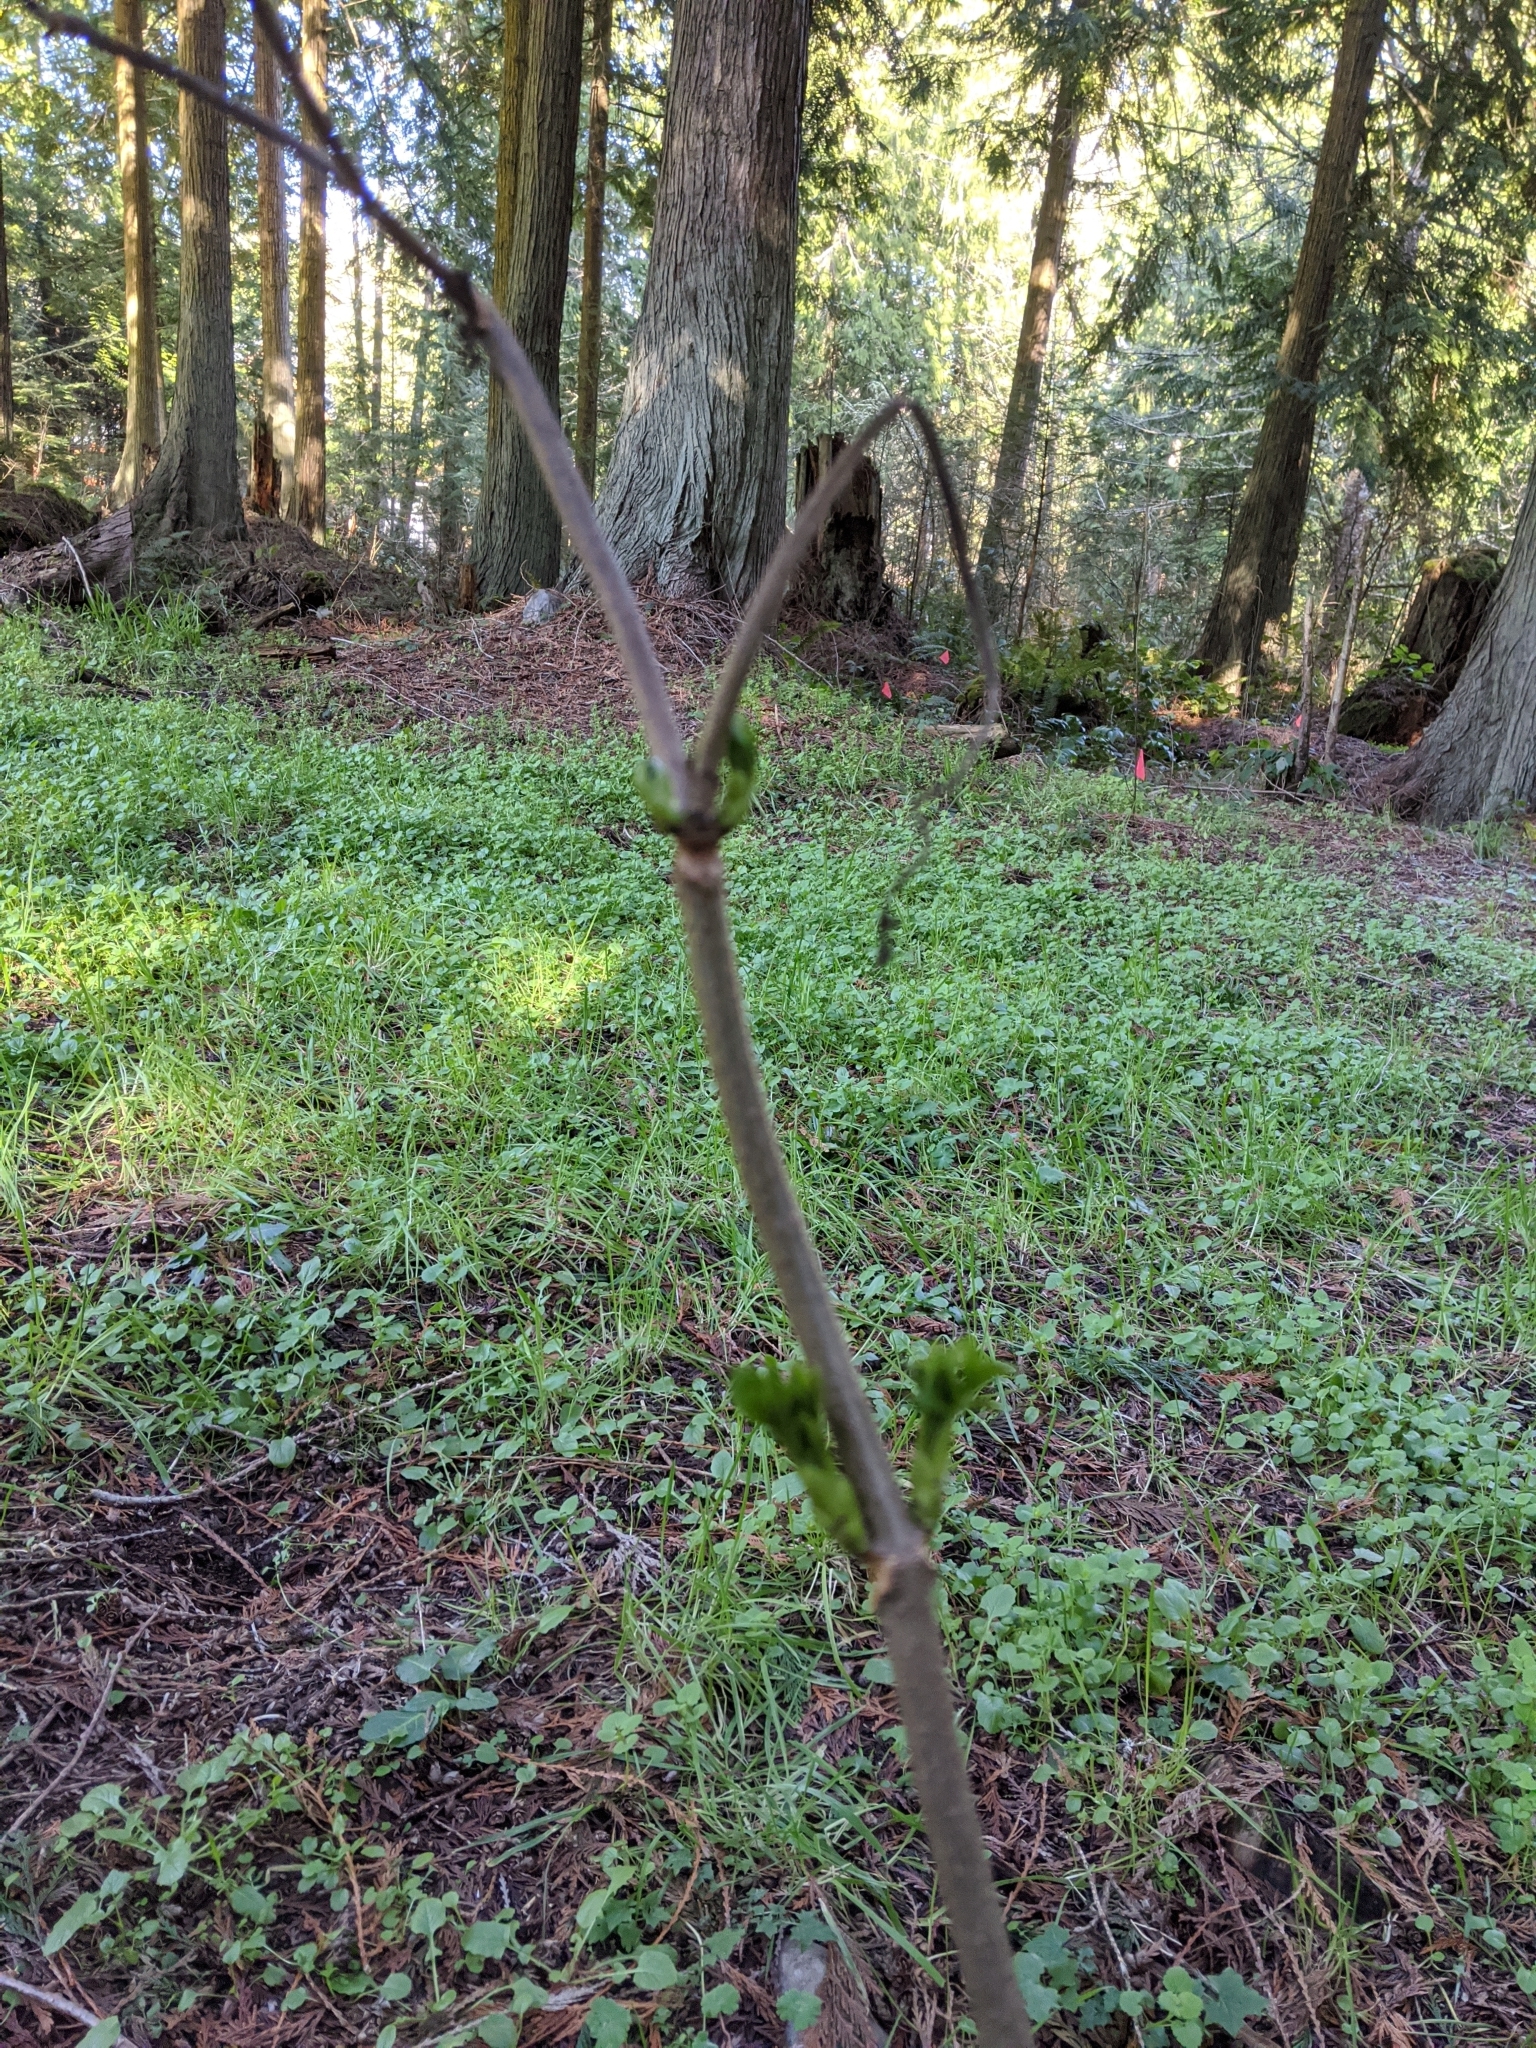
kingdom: Plantae
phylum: Tracheophyta
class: Magnoliopsida
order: Dipsacales
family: Viburnaceae
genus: Sambucus
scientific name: Sambucus racemosa
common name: Red-berried elder
